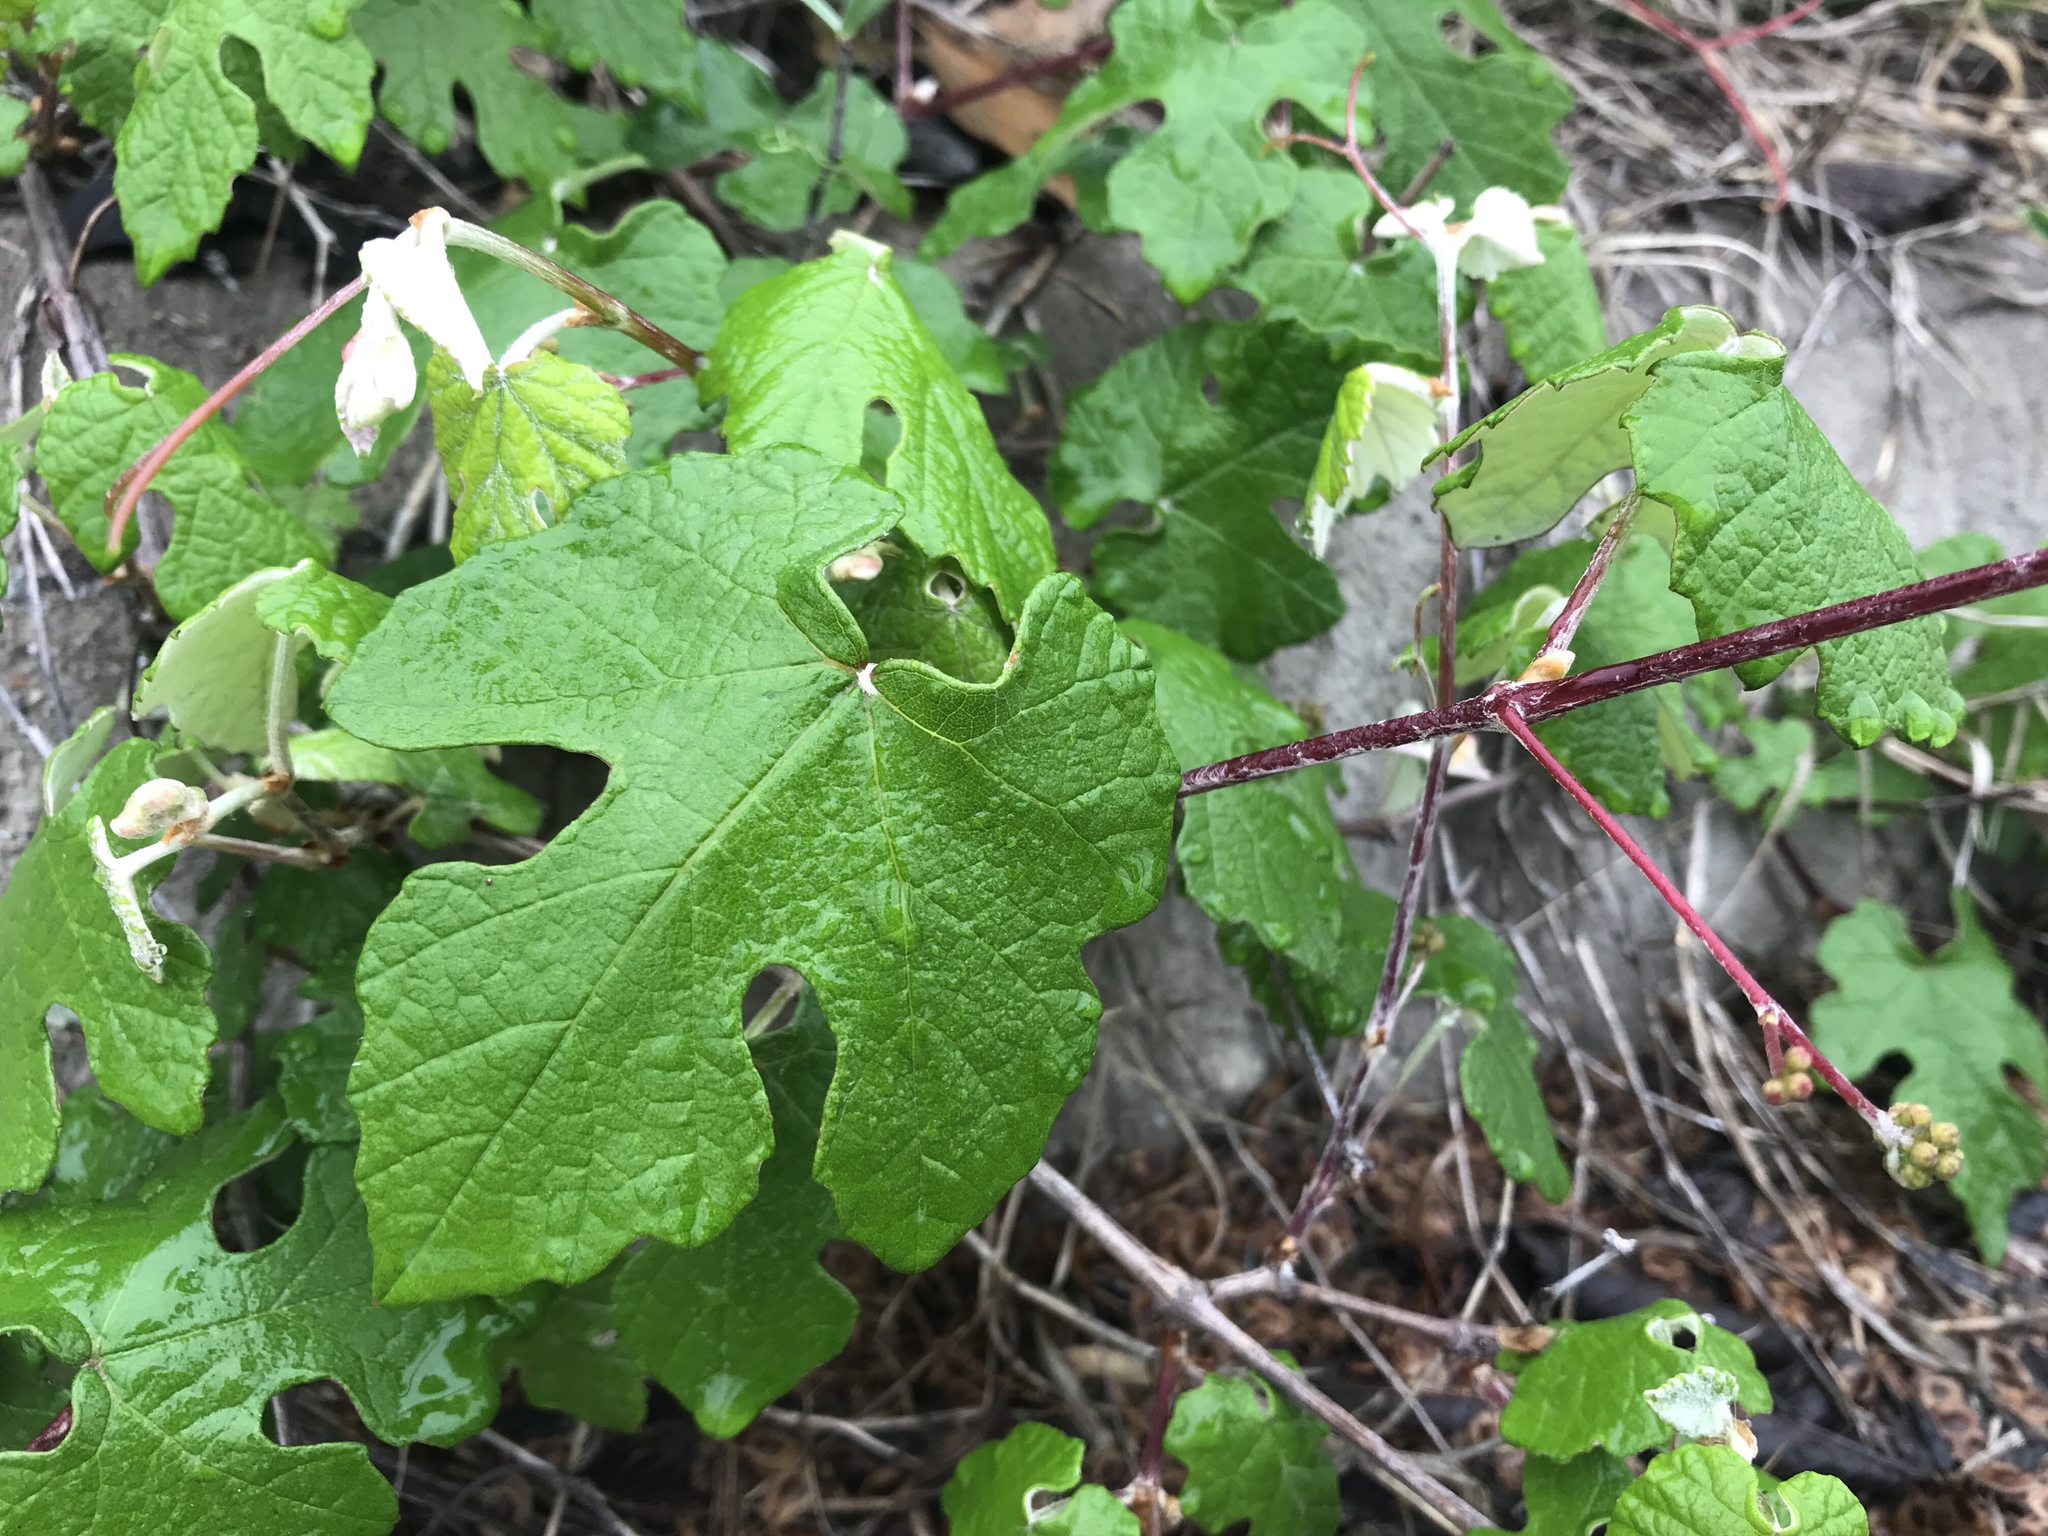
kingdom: Plantae
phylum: Tracheophyta
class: Magnoliopsida
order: Vitales
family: Vitaceae
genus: Vitis
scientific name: Vitis mustangensis
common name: Mustang grape
